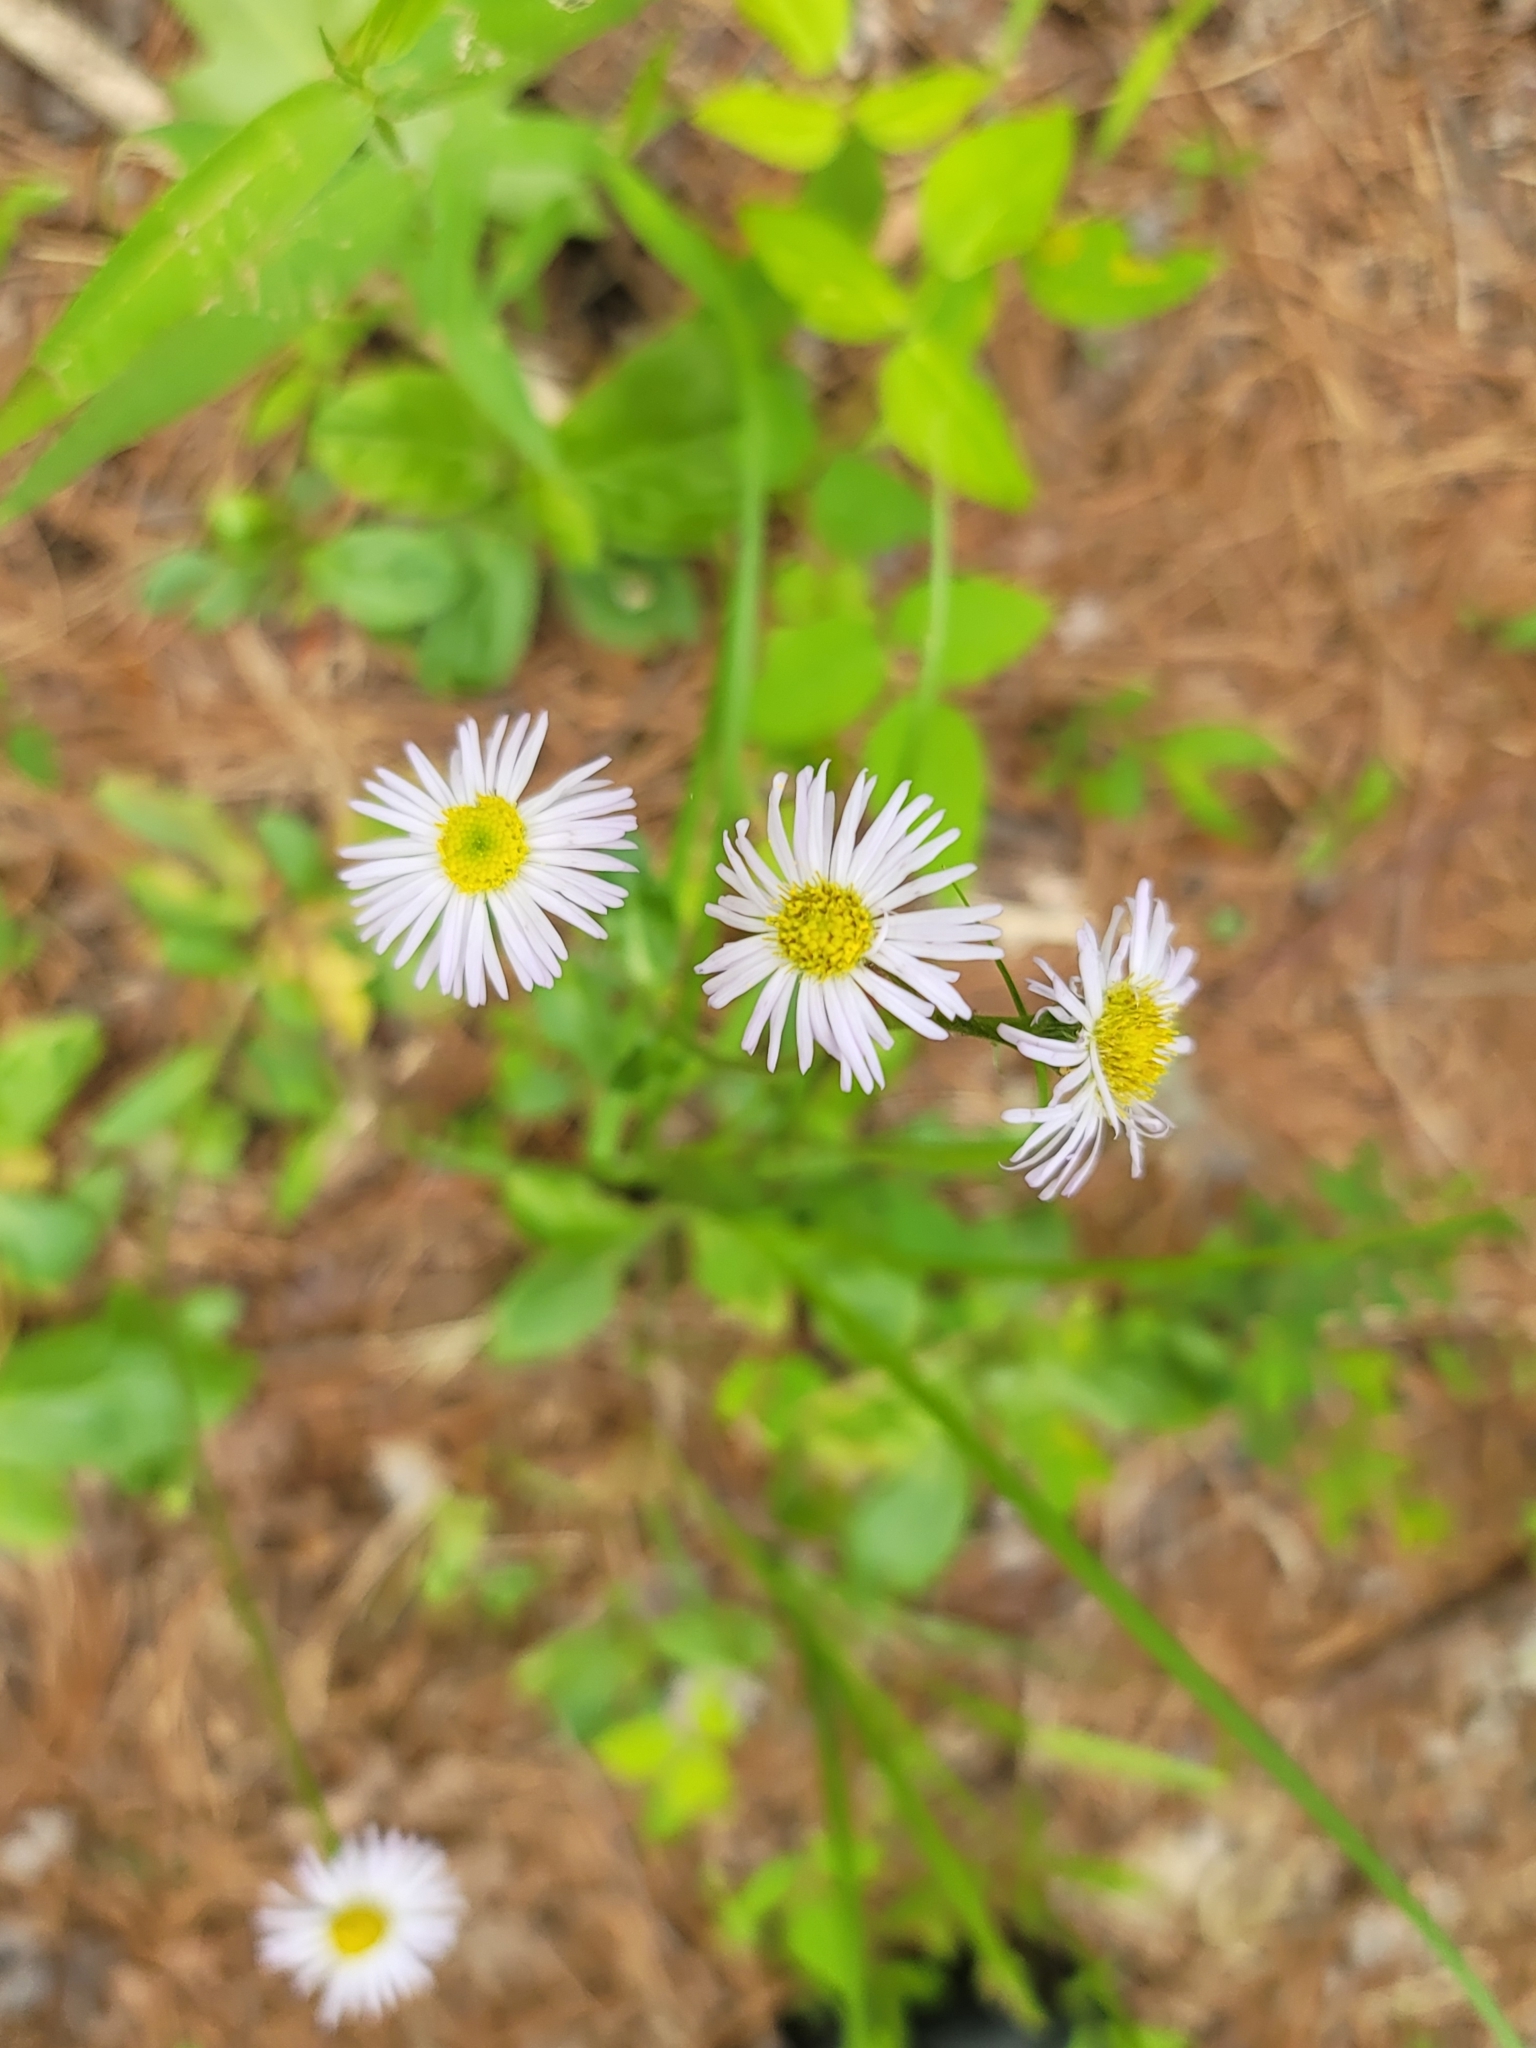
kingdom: Plantae
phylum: Tracheophyta
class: Magnoliopsida
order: Asterales
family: Asteraceae
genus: Erigeron
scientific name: Erigeron pulchellus
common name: Hairy fleabane
